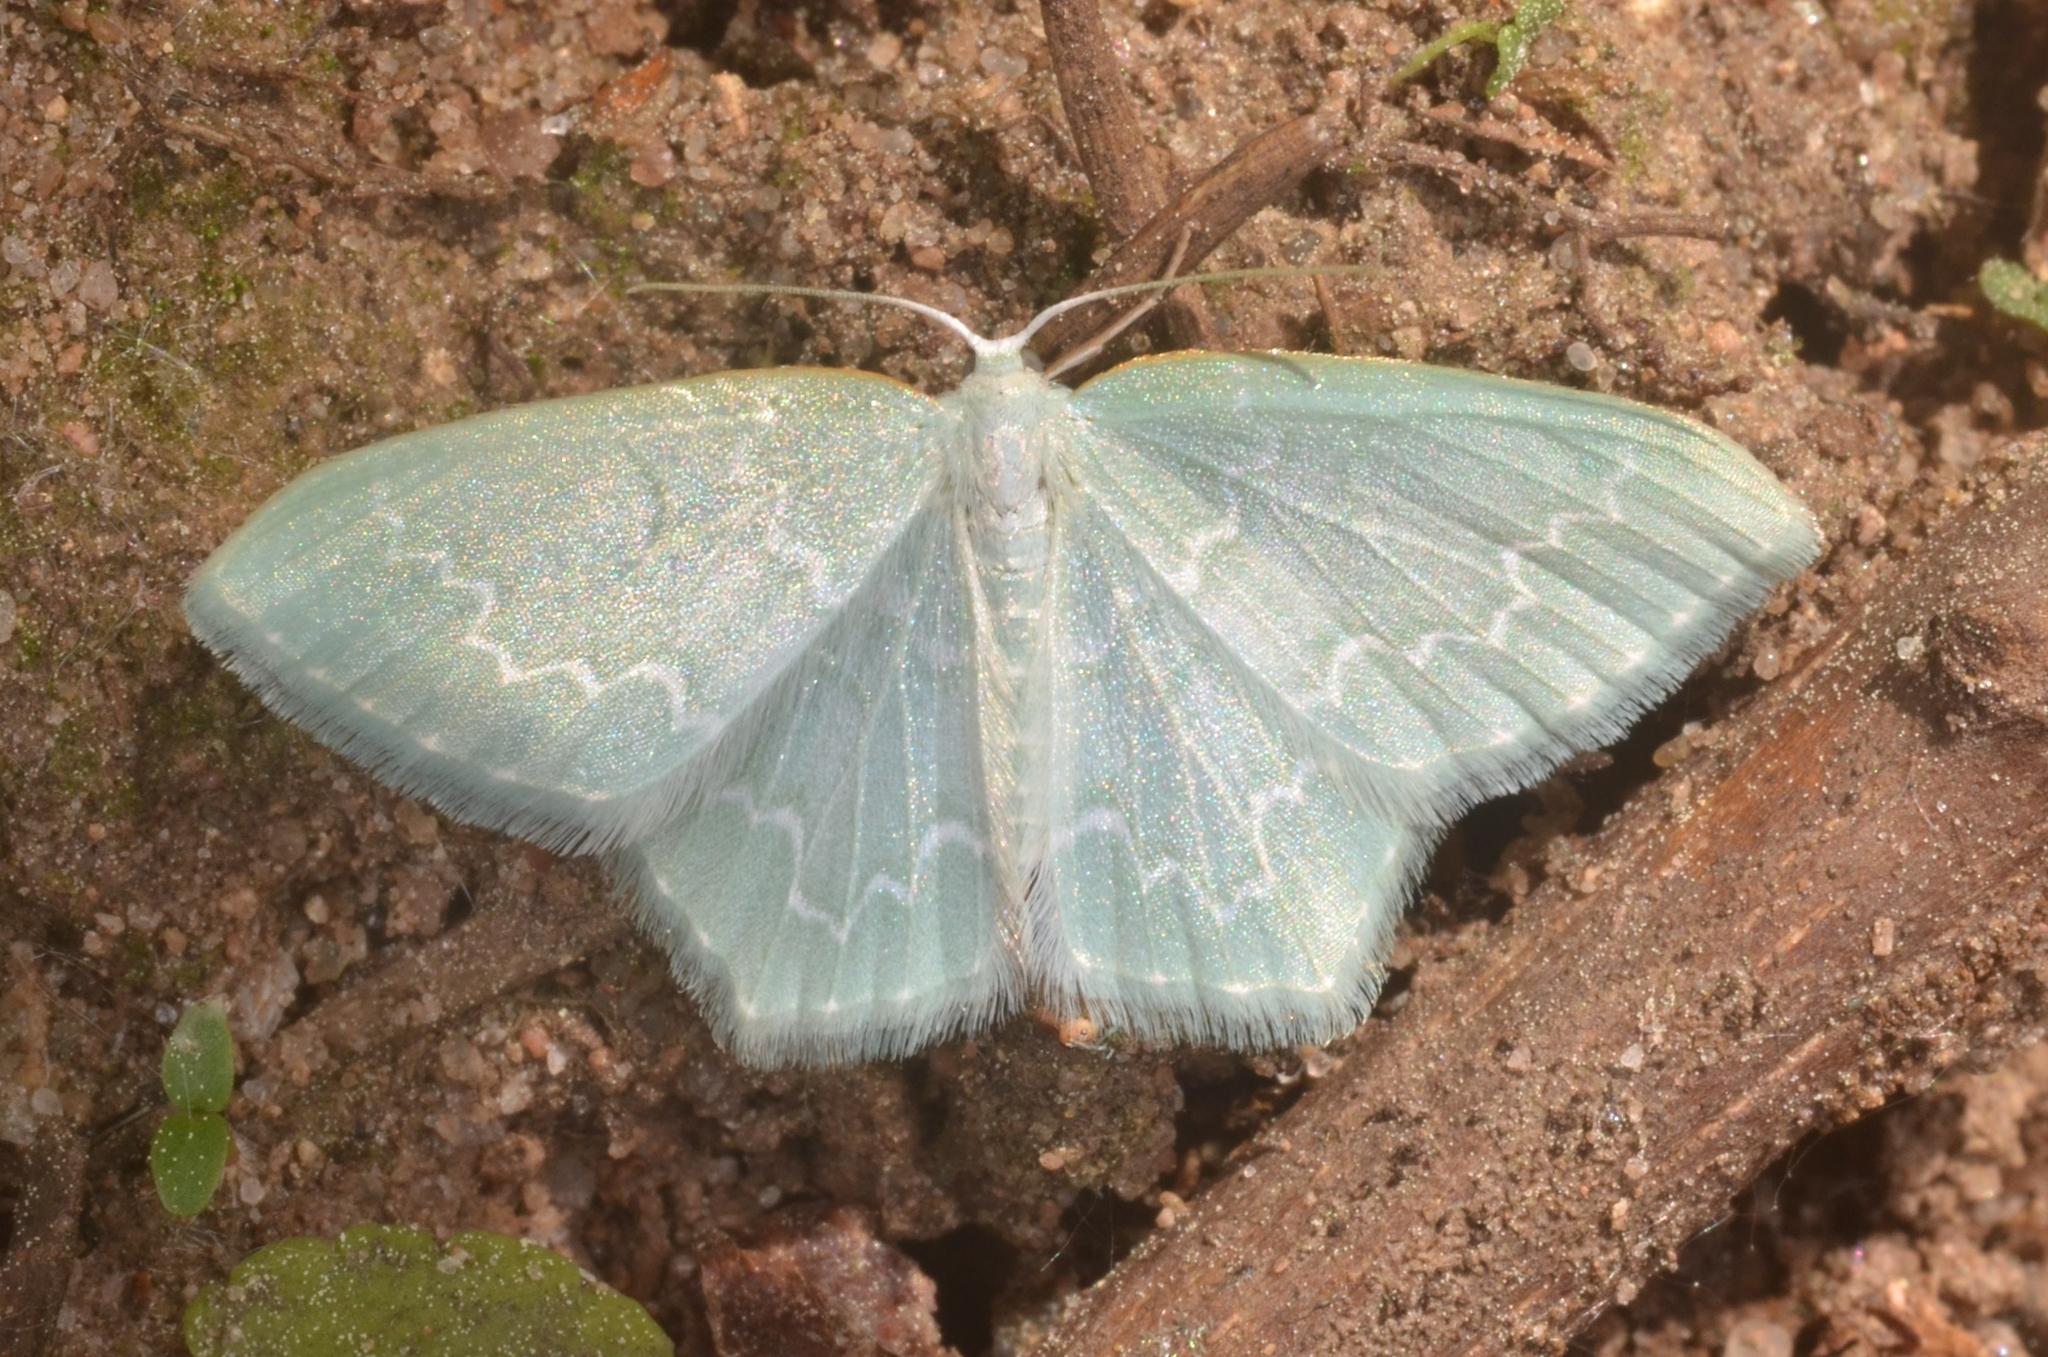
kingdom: Animalia
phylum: Arthropoda
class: Insecta
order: Lepidoptera
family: Geometridae
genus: Jodis
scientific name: Jodis putata
